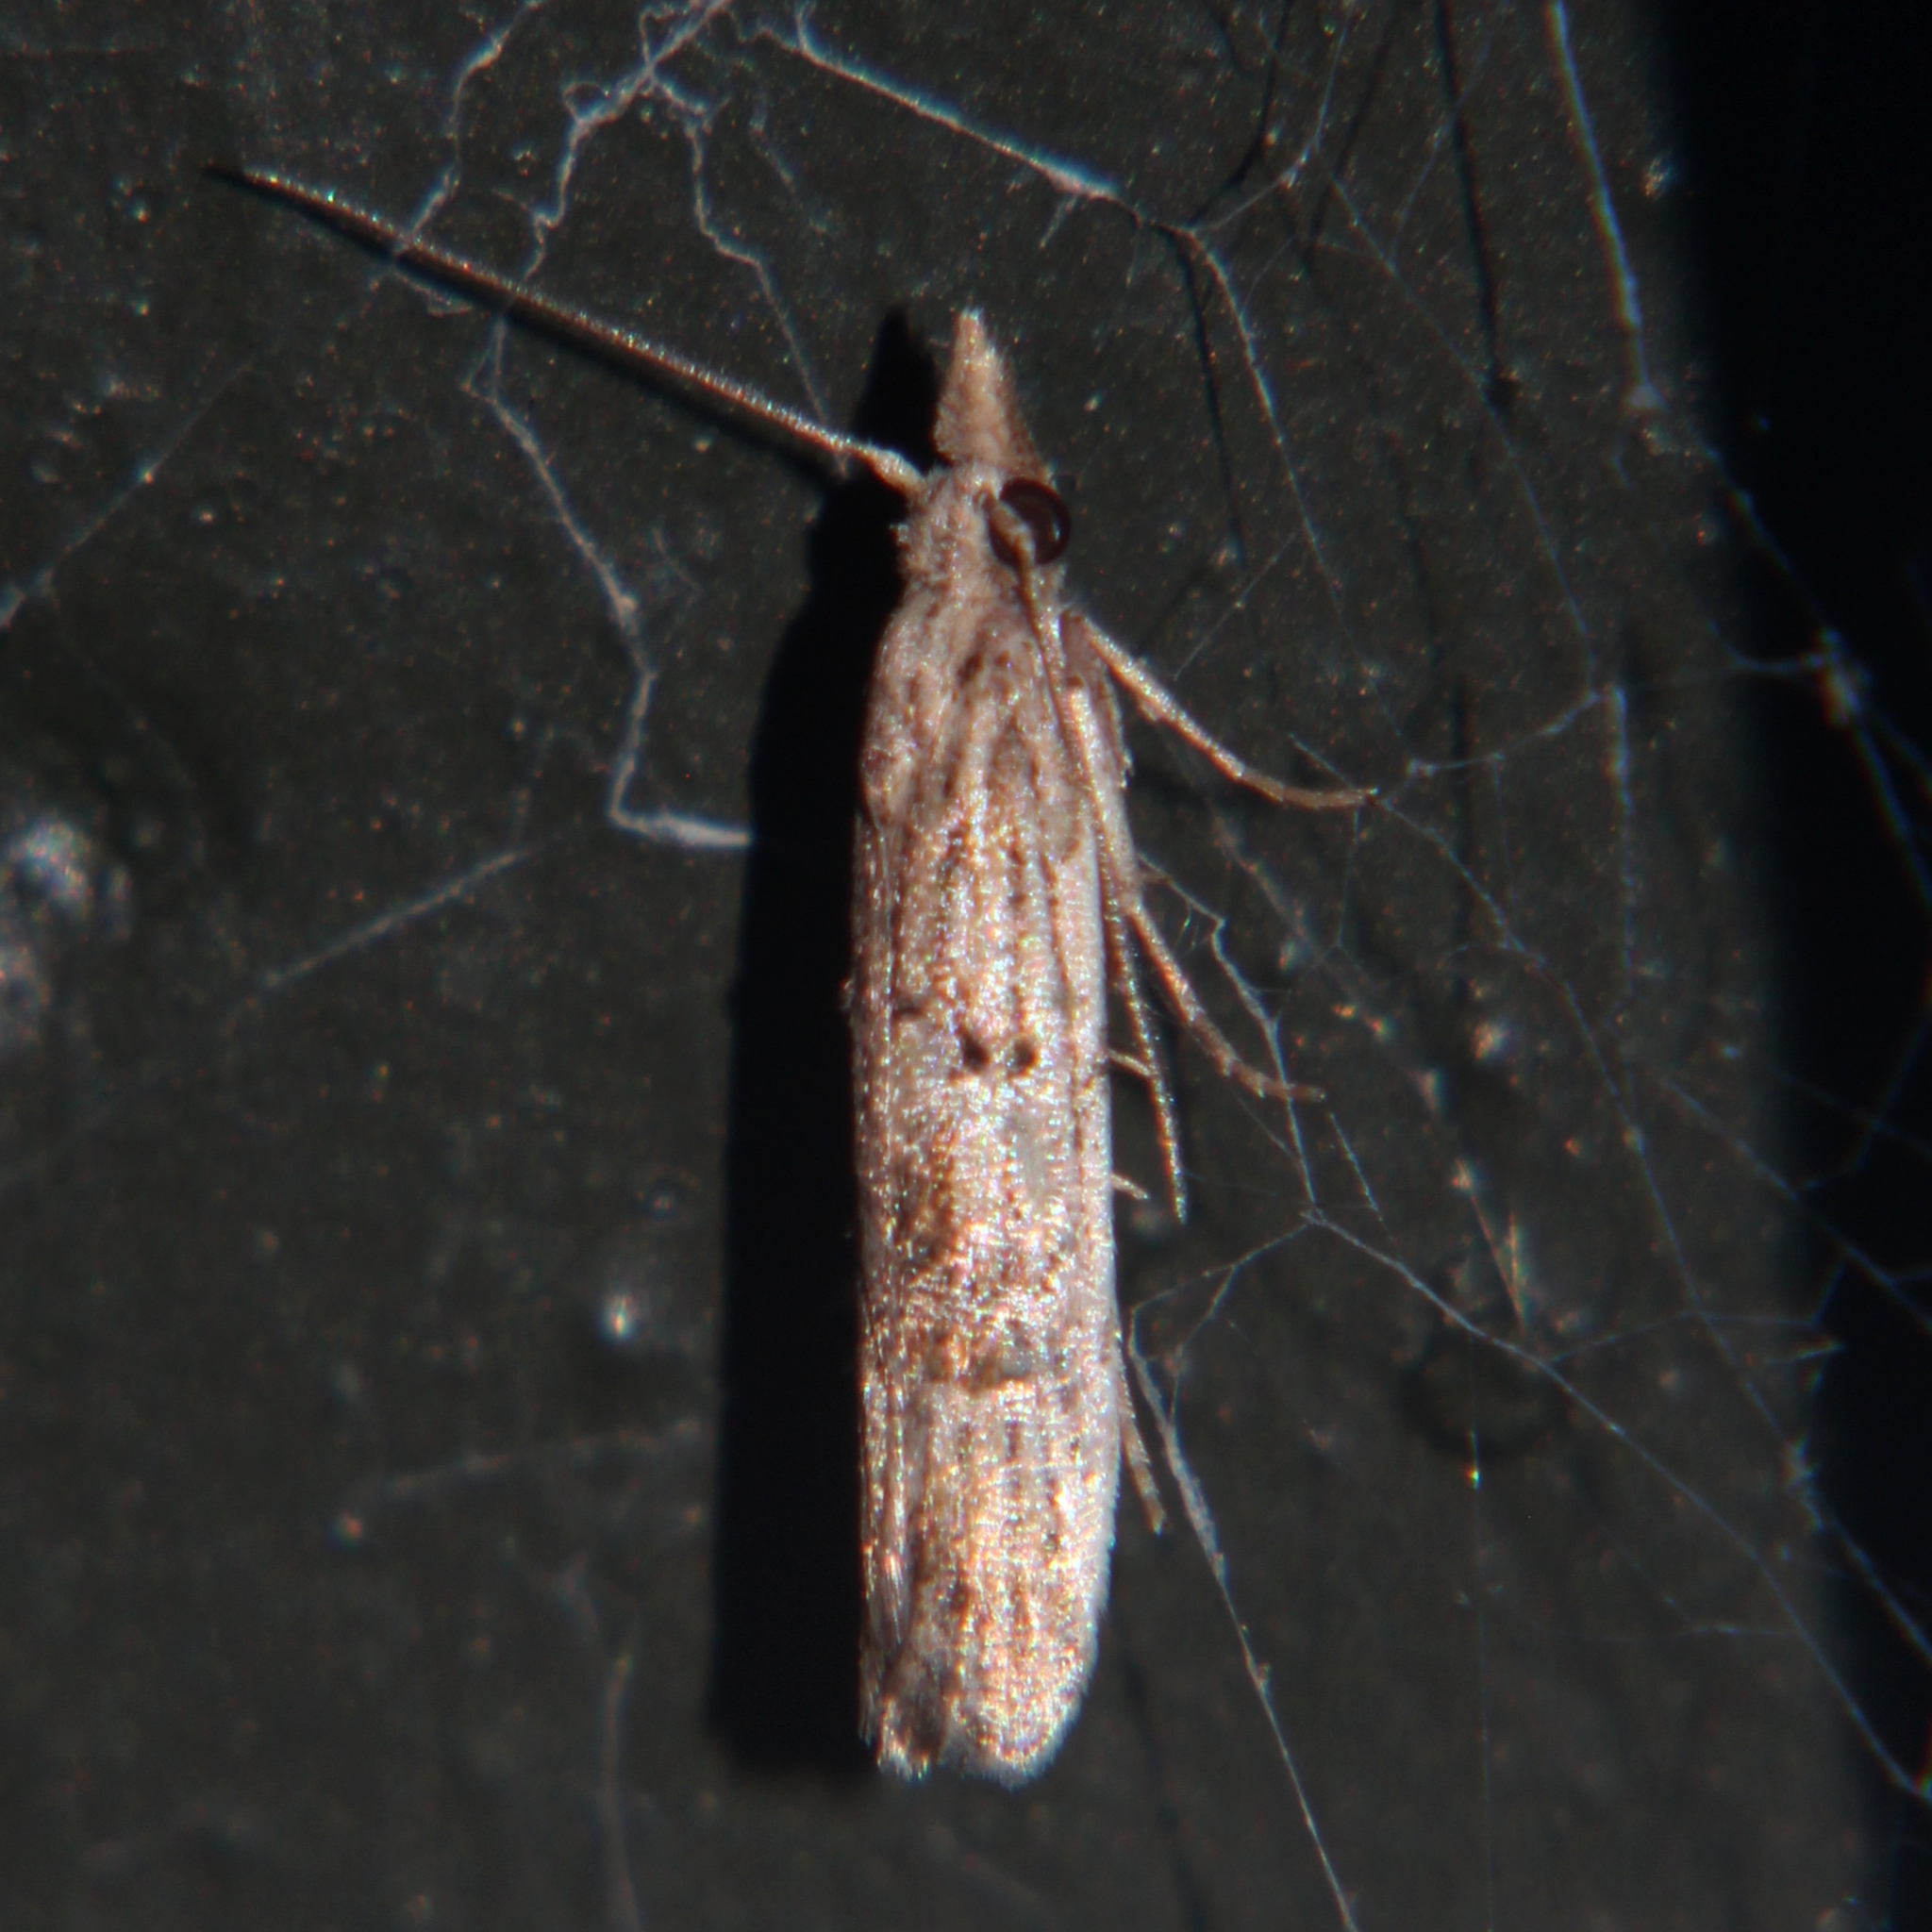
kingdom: Animalia
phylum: Arthropoda
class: Insecta
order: Lepidoptera
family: Carposinidae
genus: Carposina
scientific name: Carposina neurophorella
